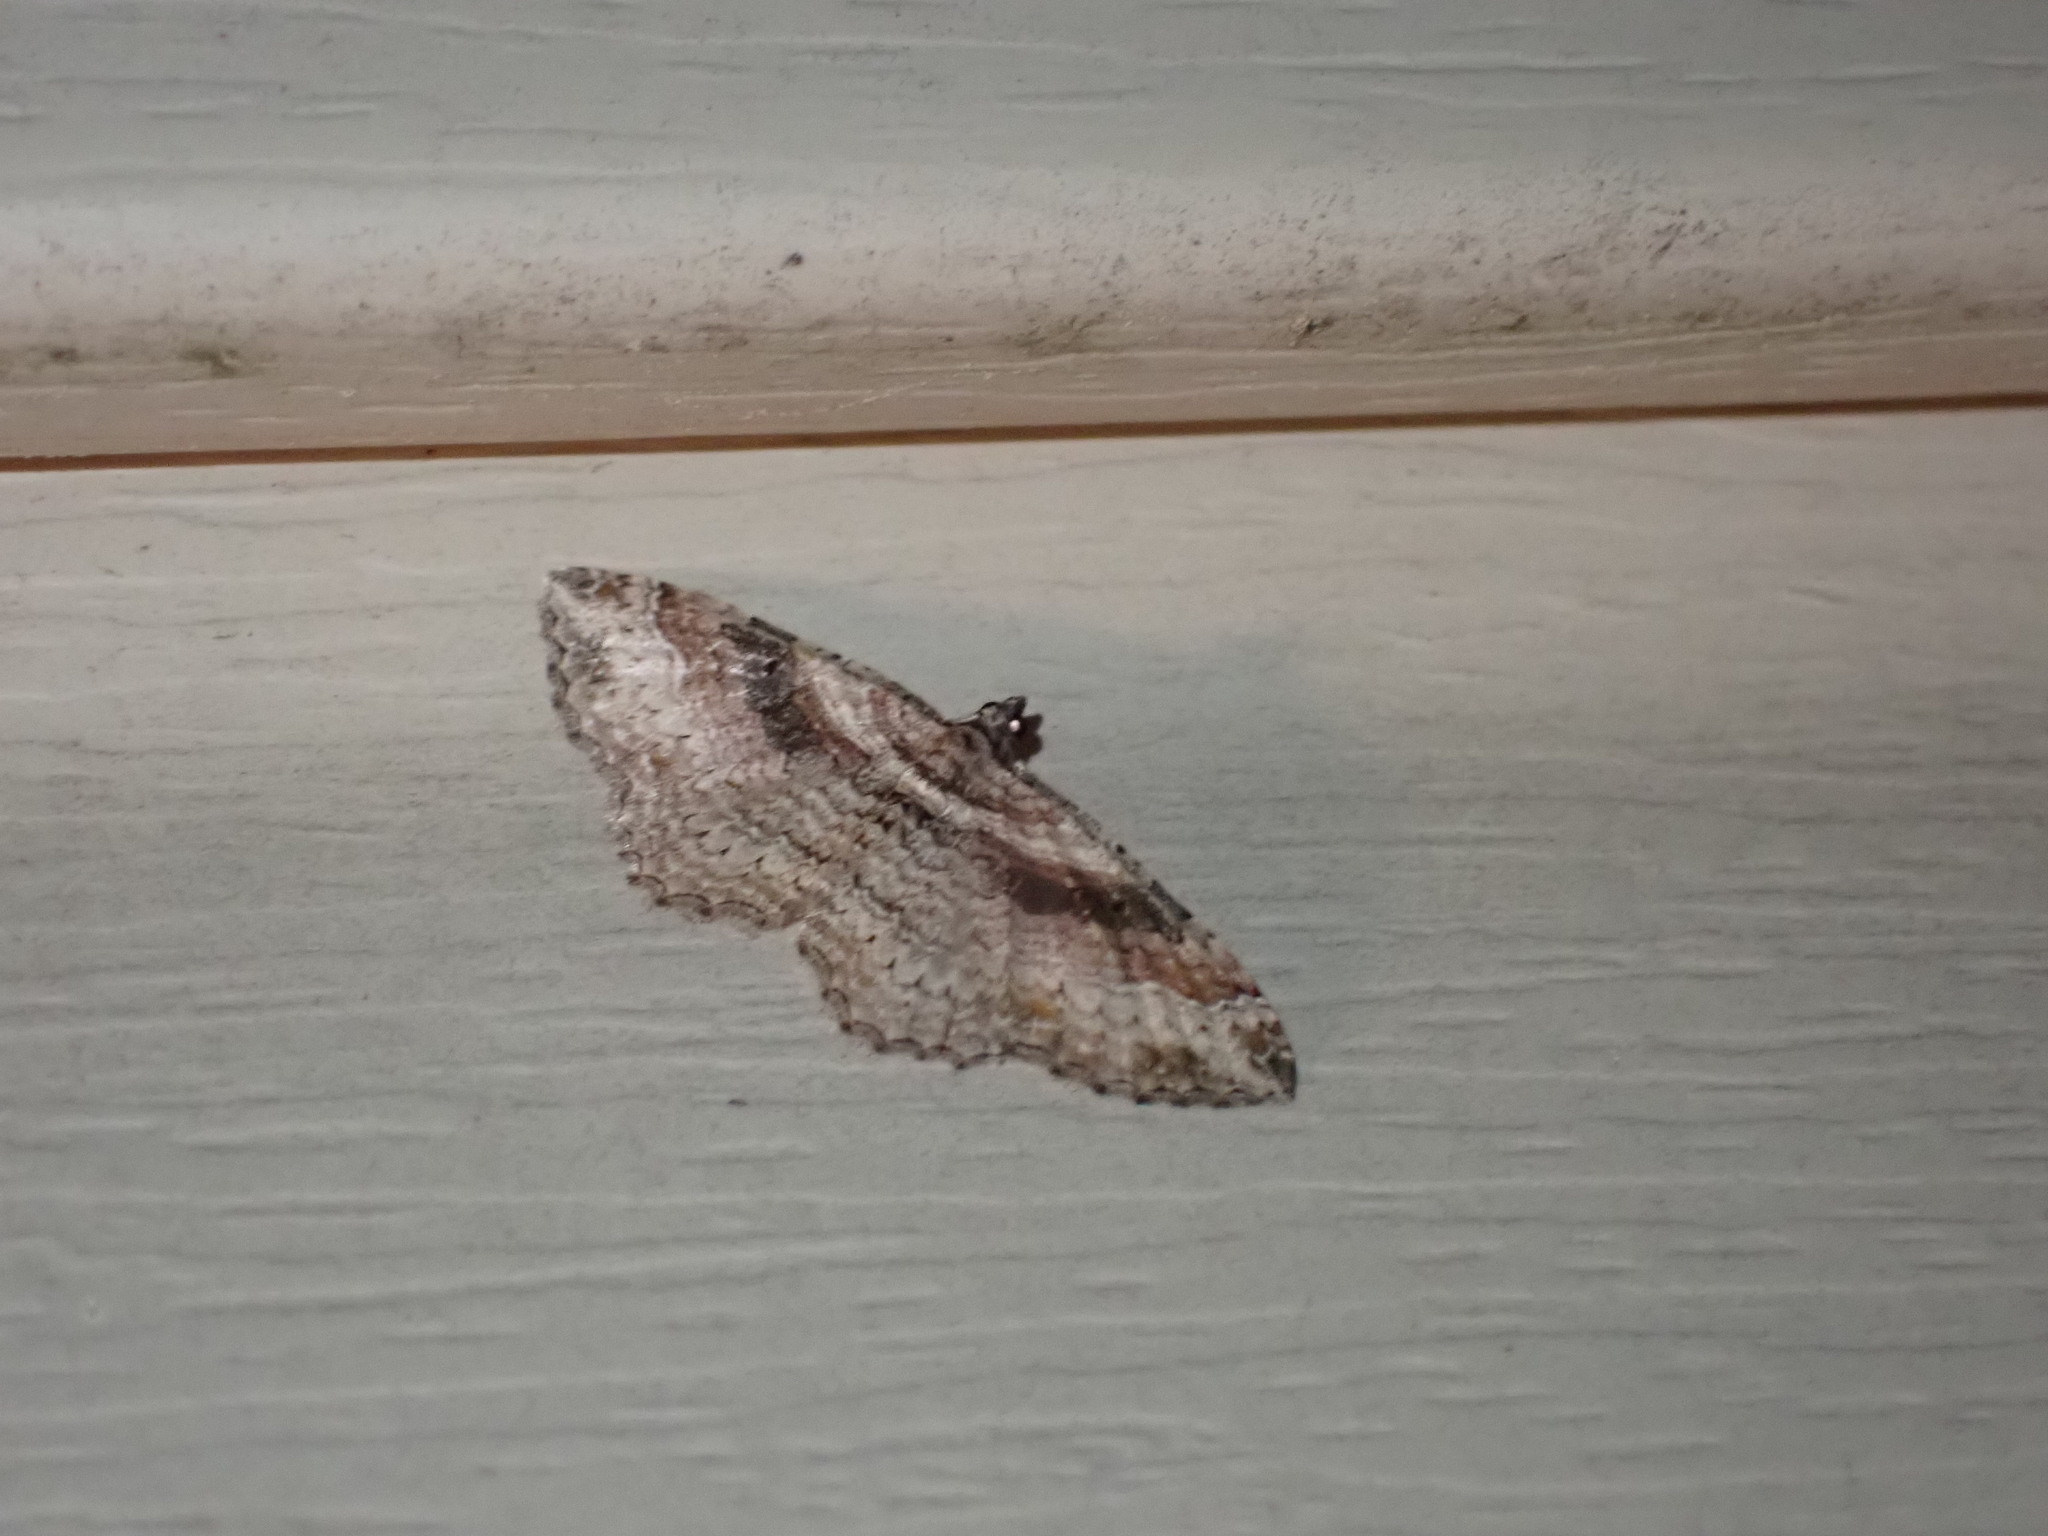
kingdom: Animalia
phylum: Arthropoda
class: Insecta
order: Lepidoptera
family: Geometridae
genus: Costaconvexa
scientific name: Costaconvexa centrostrigaria
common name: Bent-line carpet
